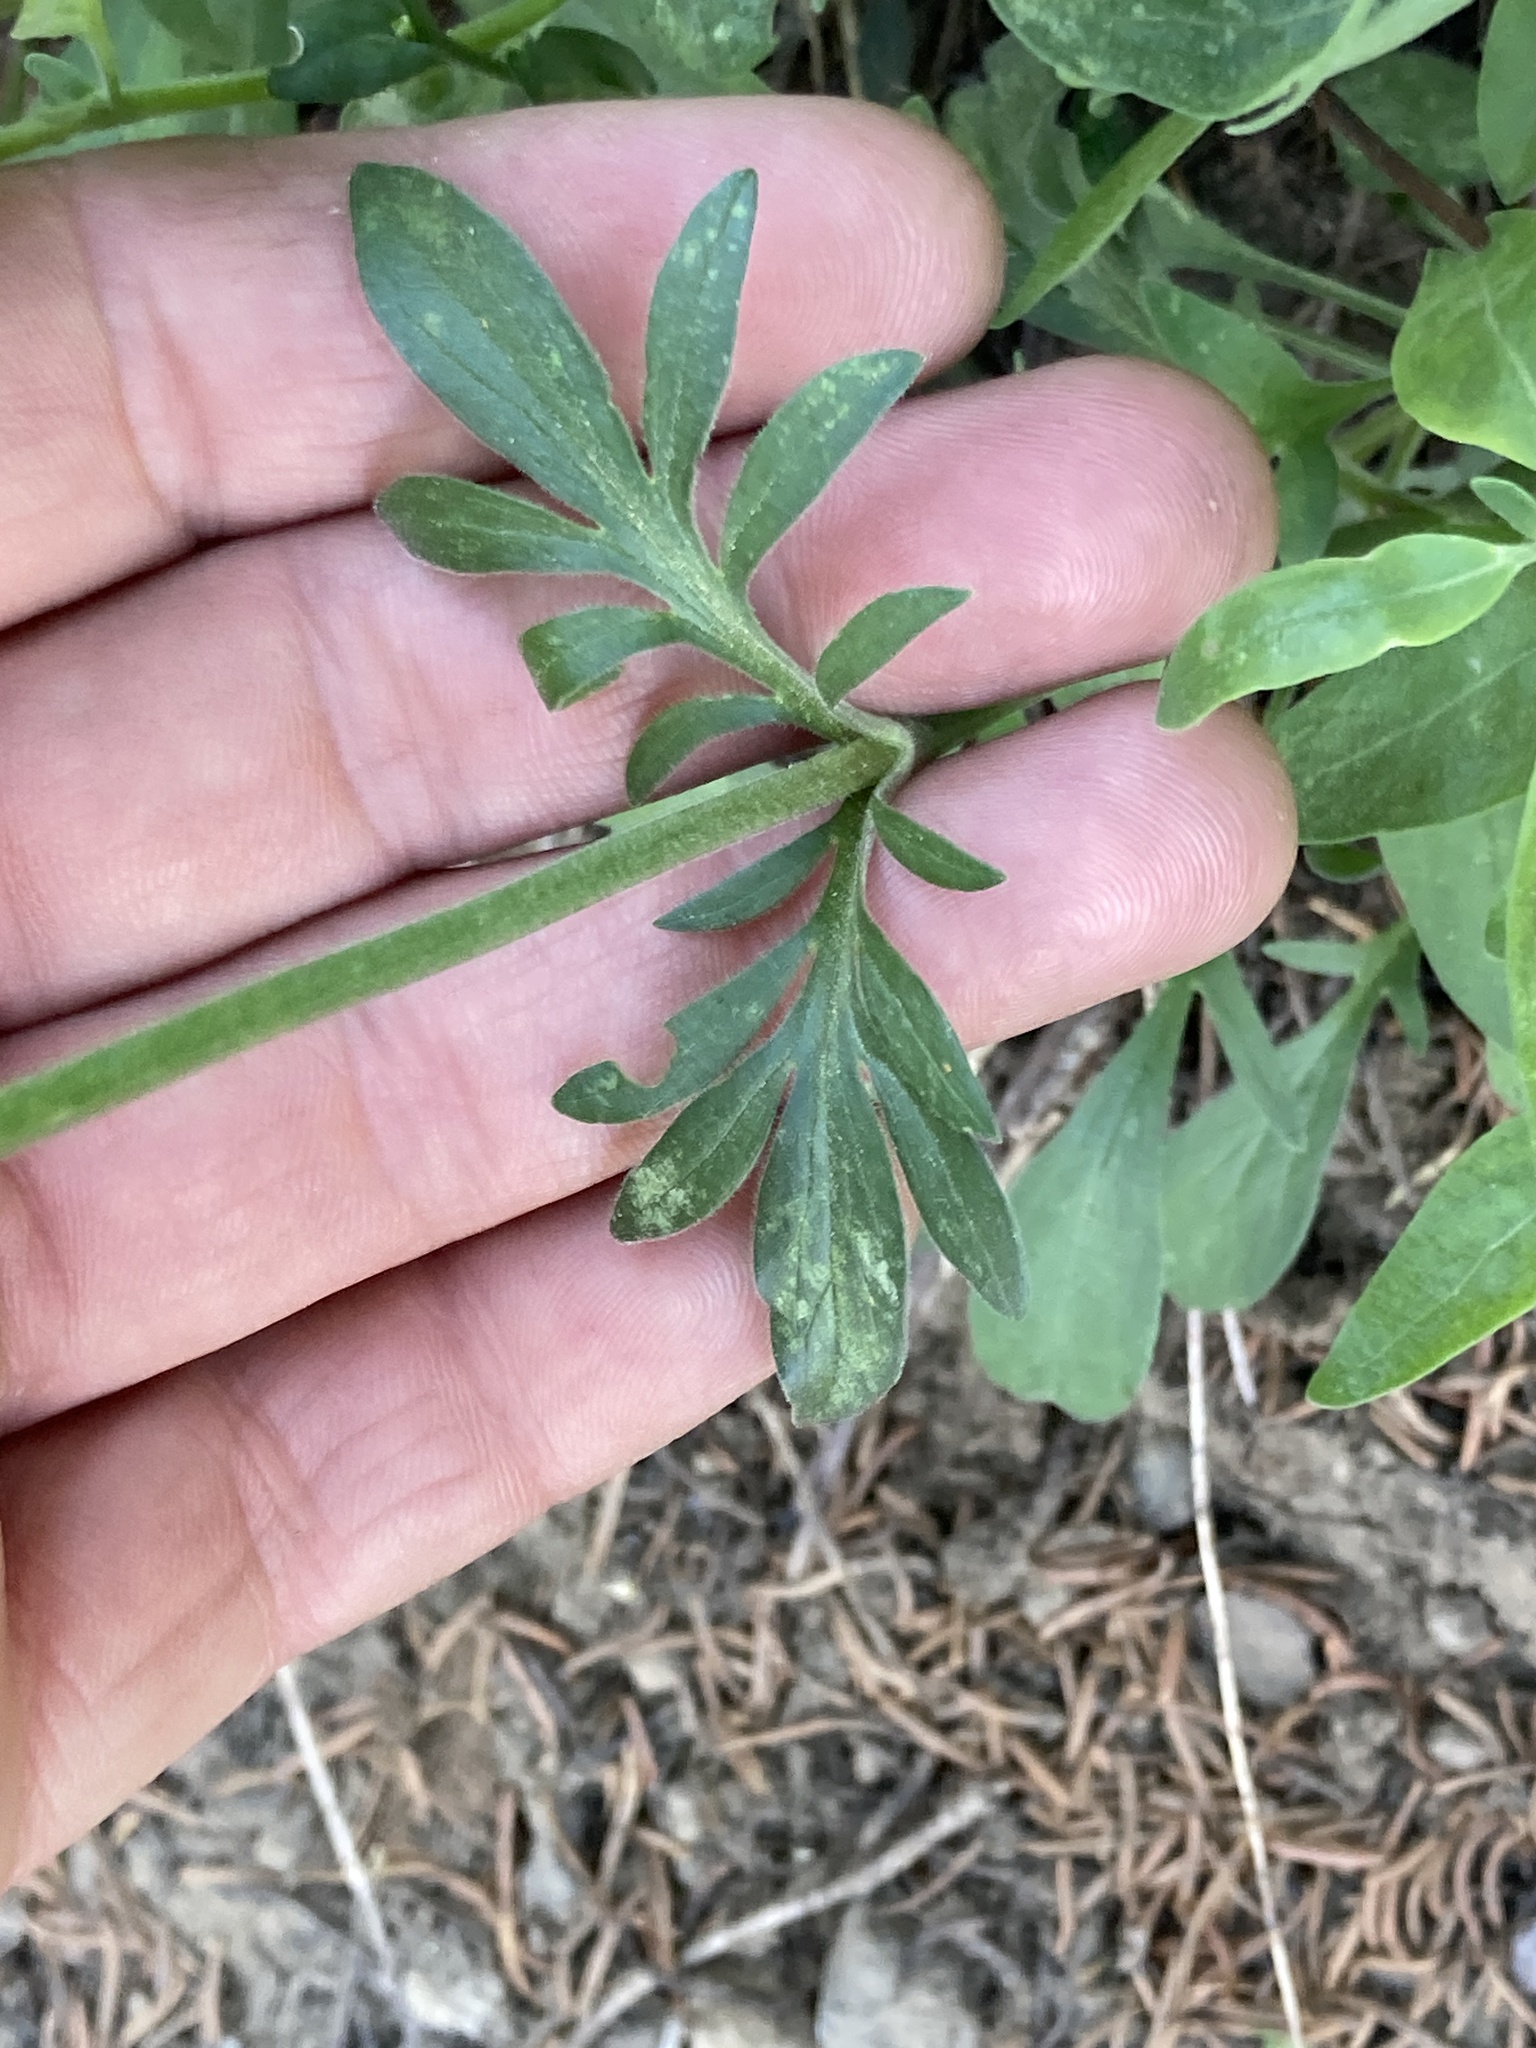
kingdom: Plantae
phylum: Tracheophyta
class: Magnoliopsida
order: Dipsacales
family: Caprifoliaceae
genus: Valeriana
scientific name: Valeriana californica
